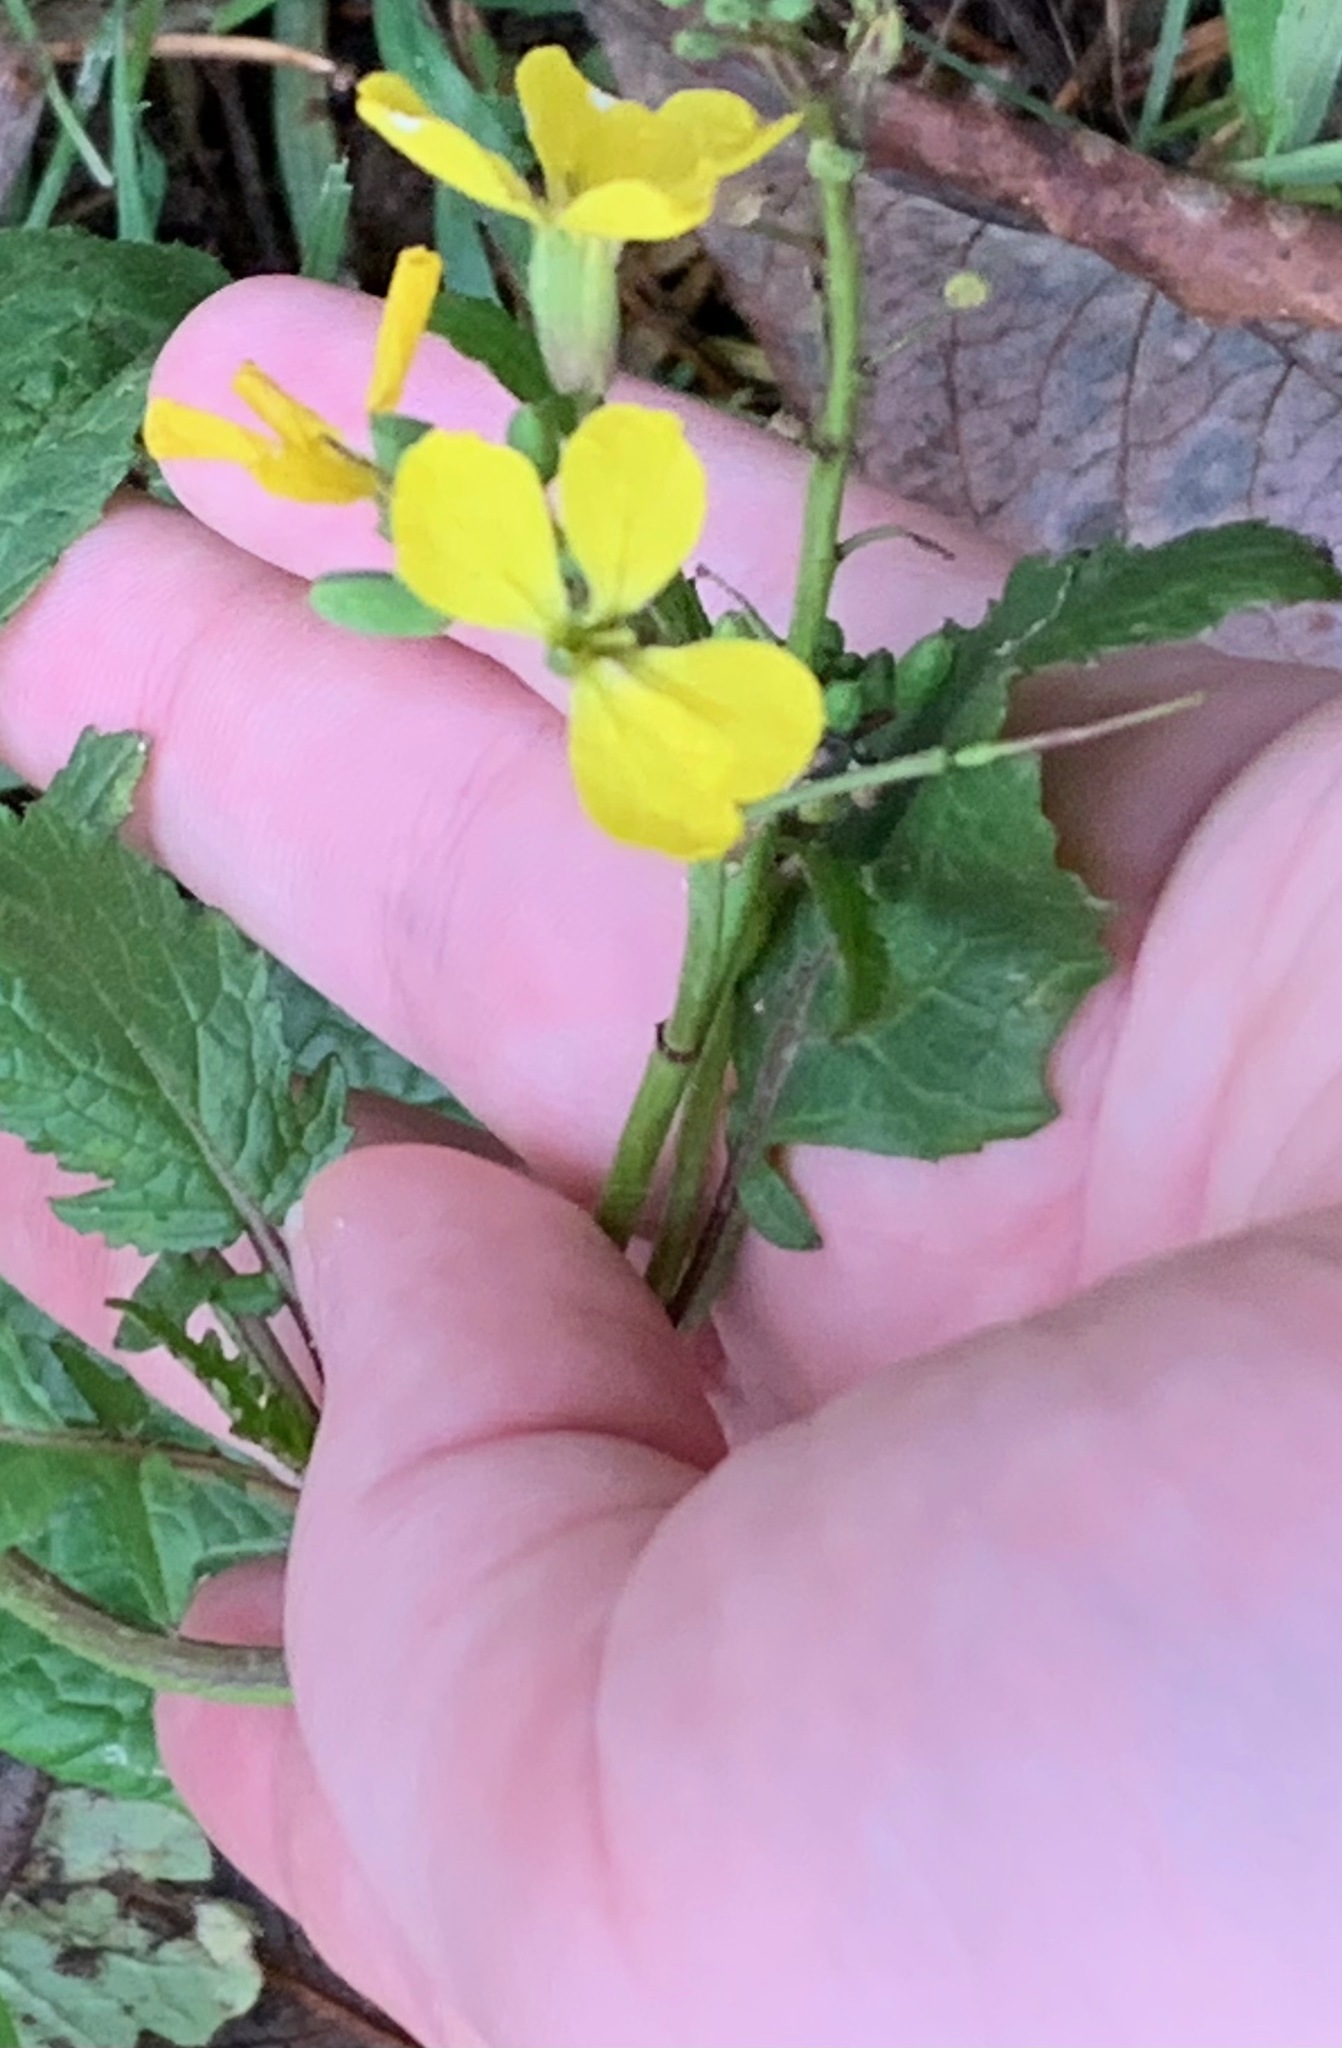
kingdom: Plantae
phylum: Tracheophyta
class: Magnoliopsida
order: Brassicales
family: Brassicaceae
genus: Raphanus
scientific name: Raphanus raphanistrum
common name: Wild radish
